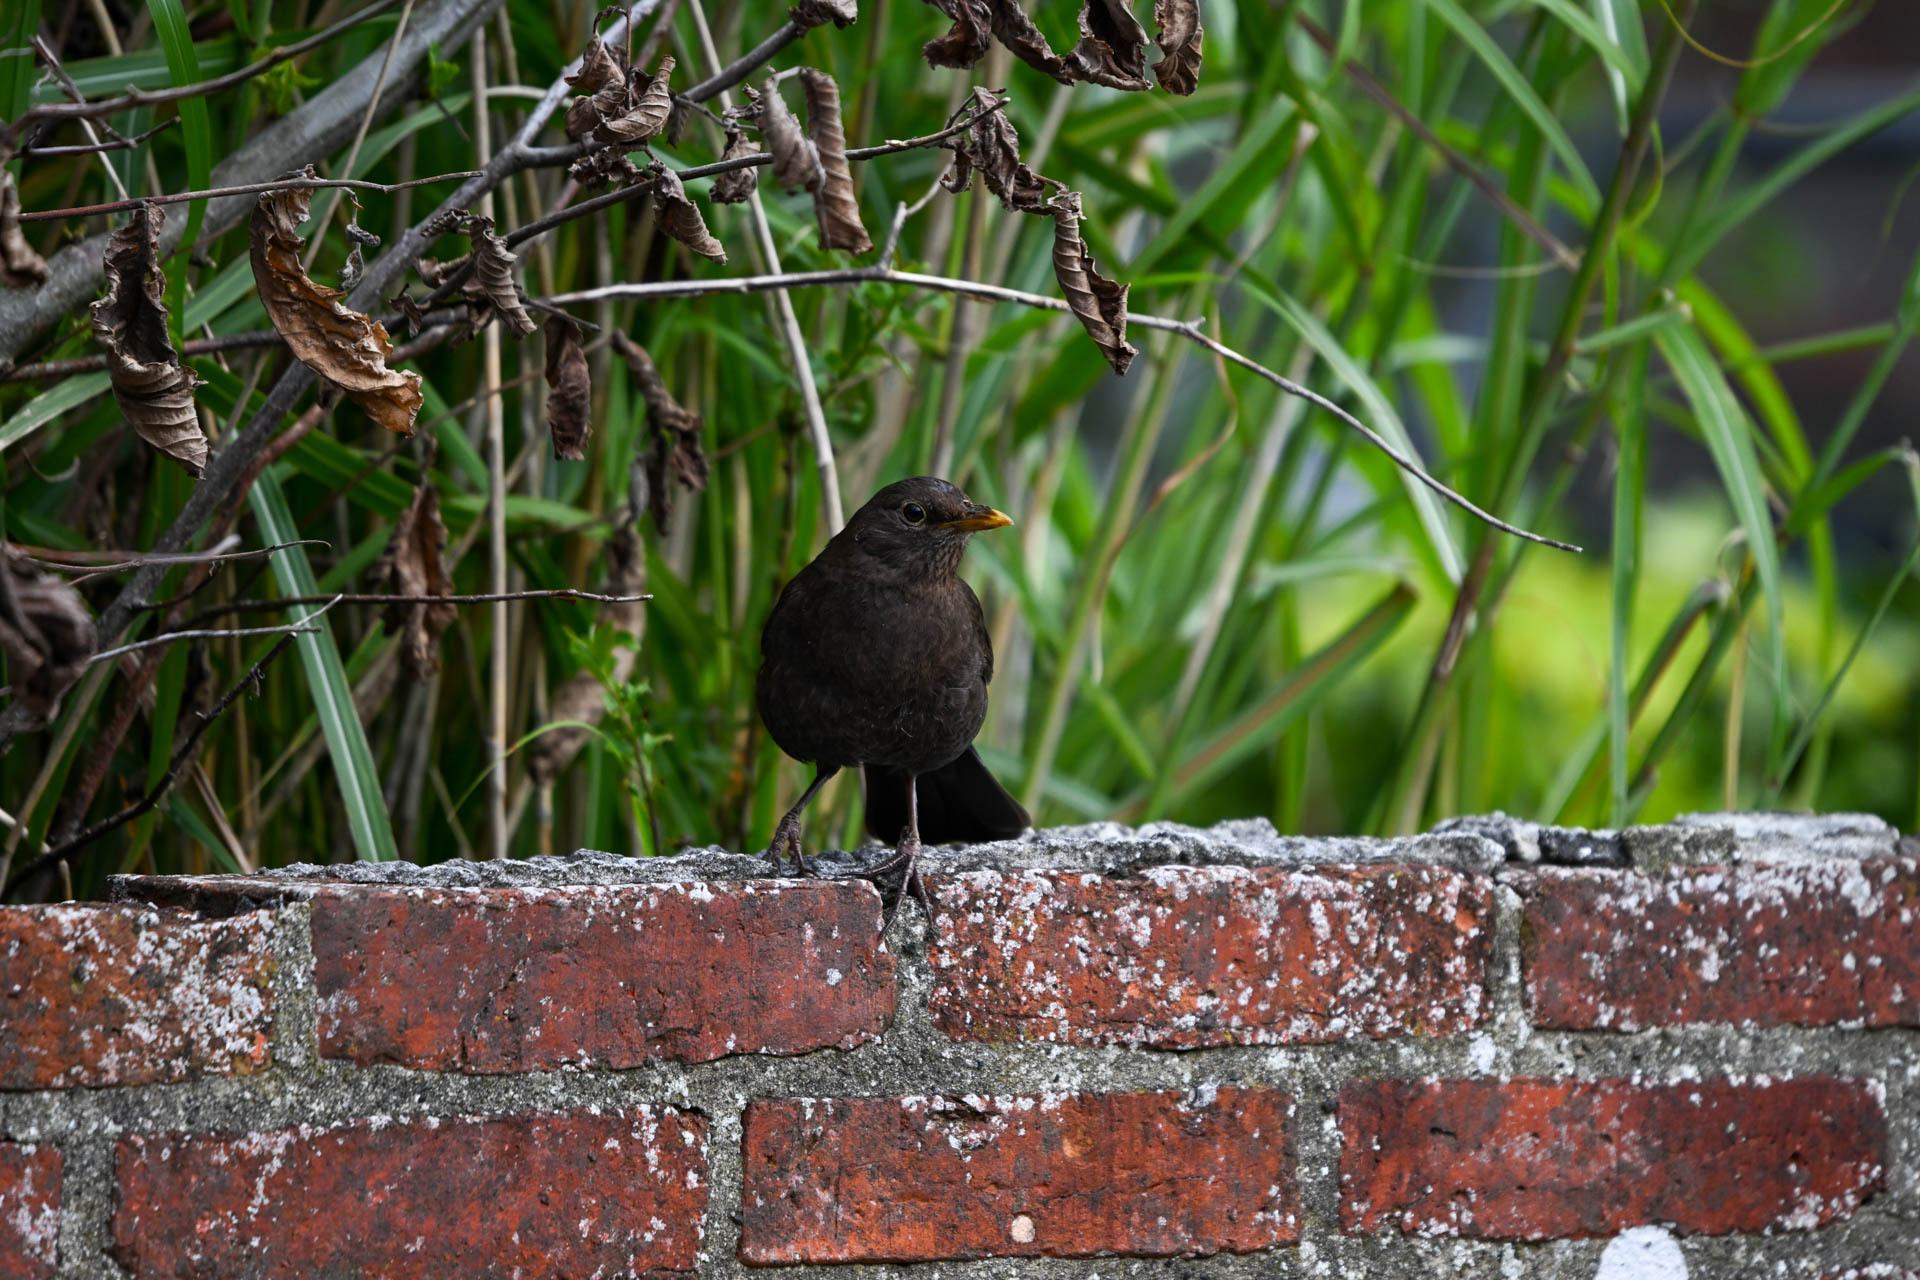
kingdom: Animalia
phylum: Chordata
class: Aves
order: Passeriformes
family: Turdidae
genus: Turdus
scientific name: Turdus merula
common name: Common blackbird
